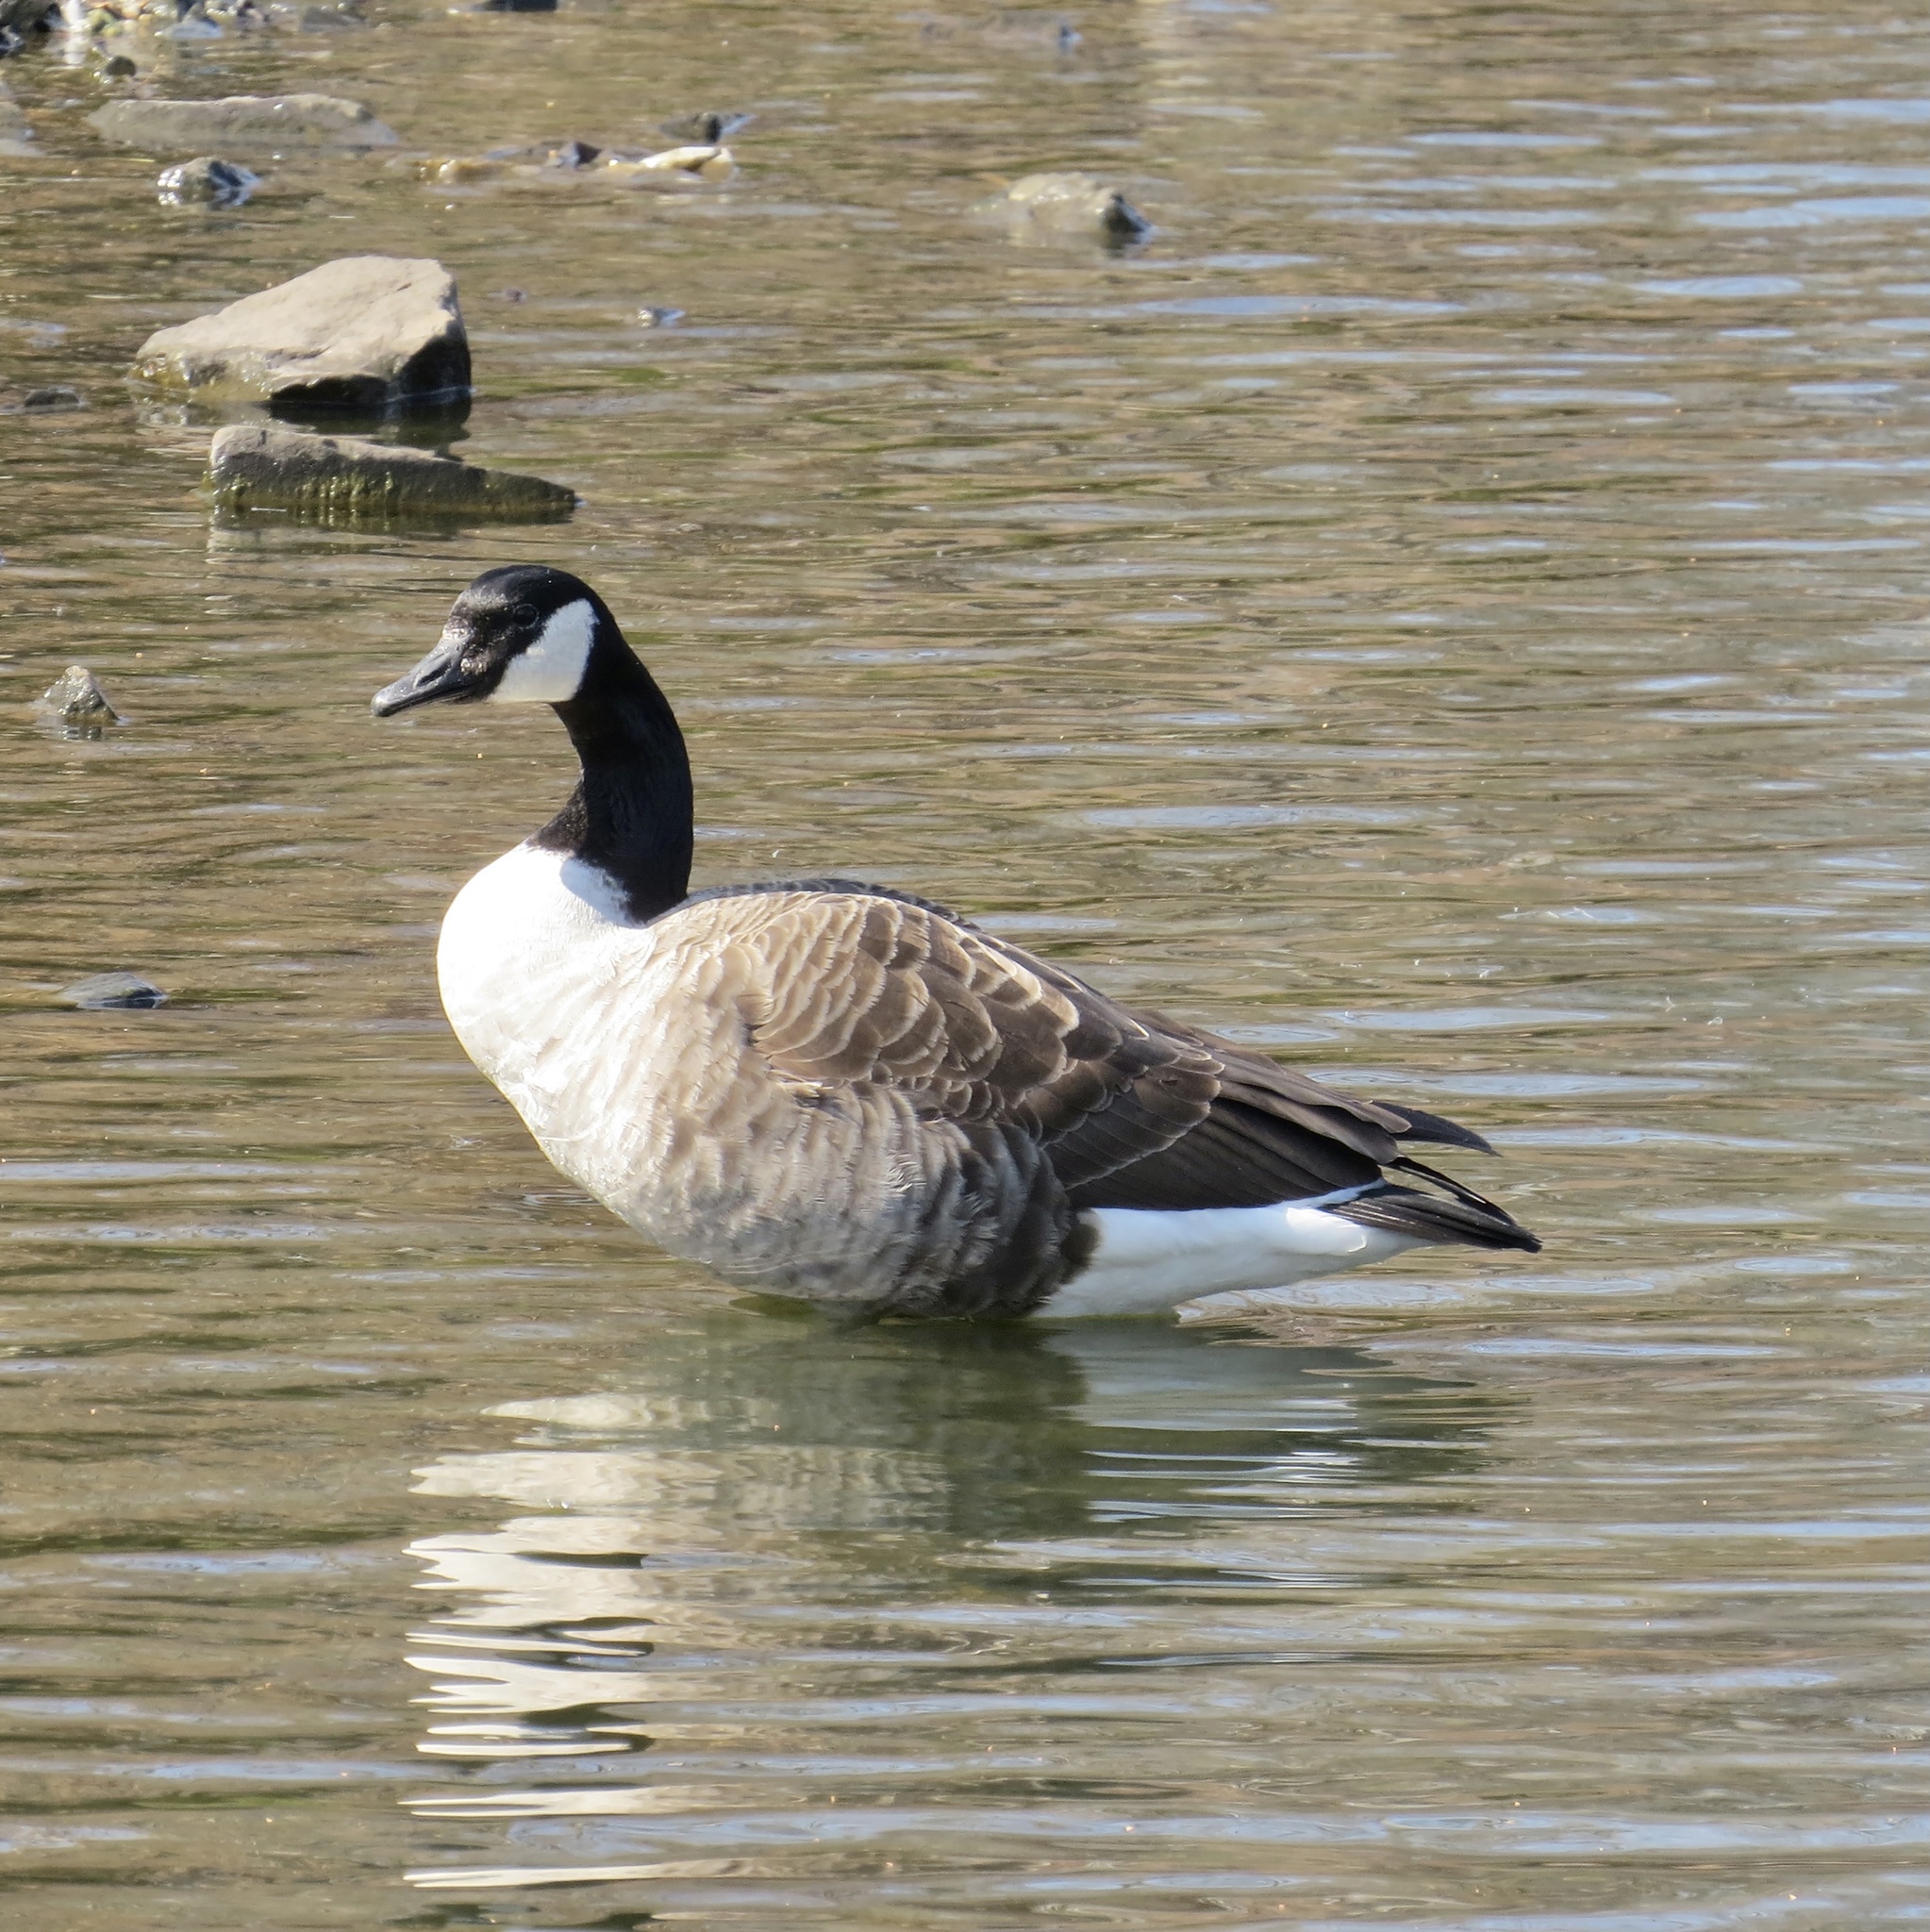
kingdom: Animalia
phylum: Chordata
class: Aves
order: Anseriformes
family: Anatidae
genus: Branta
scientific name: Branta canadensis
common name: Canada goose
